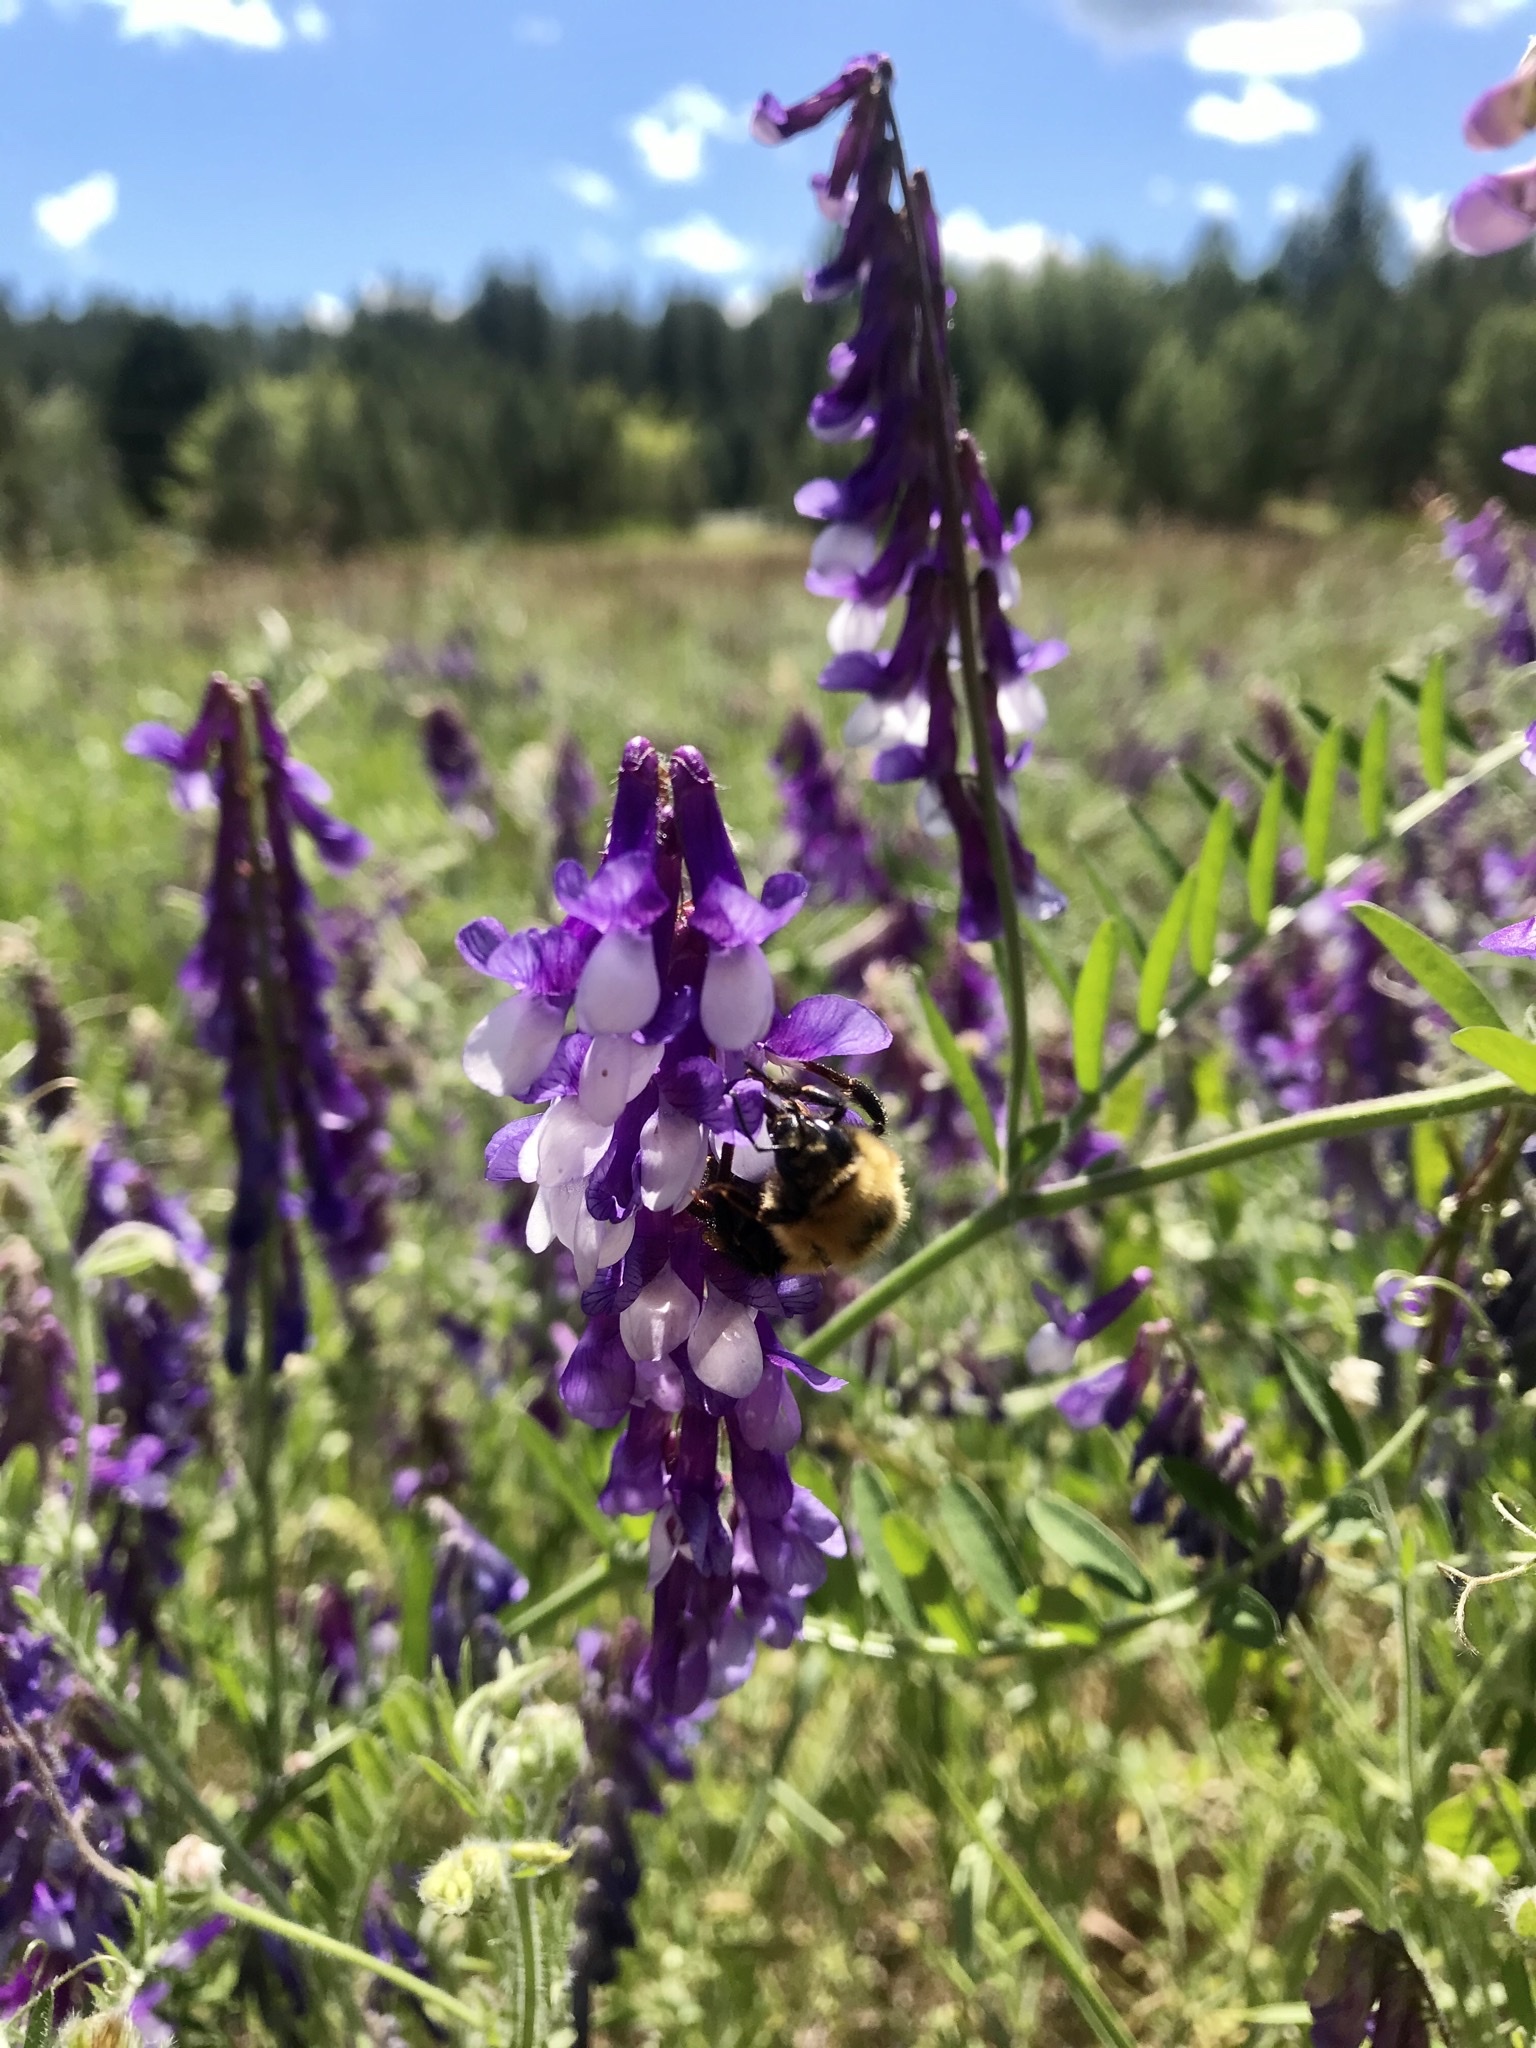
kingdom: Animalia
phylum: Arthropoda
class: Insecta
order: Hymenoptera
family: Apidae
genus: Bombus
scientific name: Bombus appositus
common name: White-shouldered bumble bee
